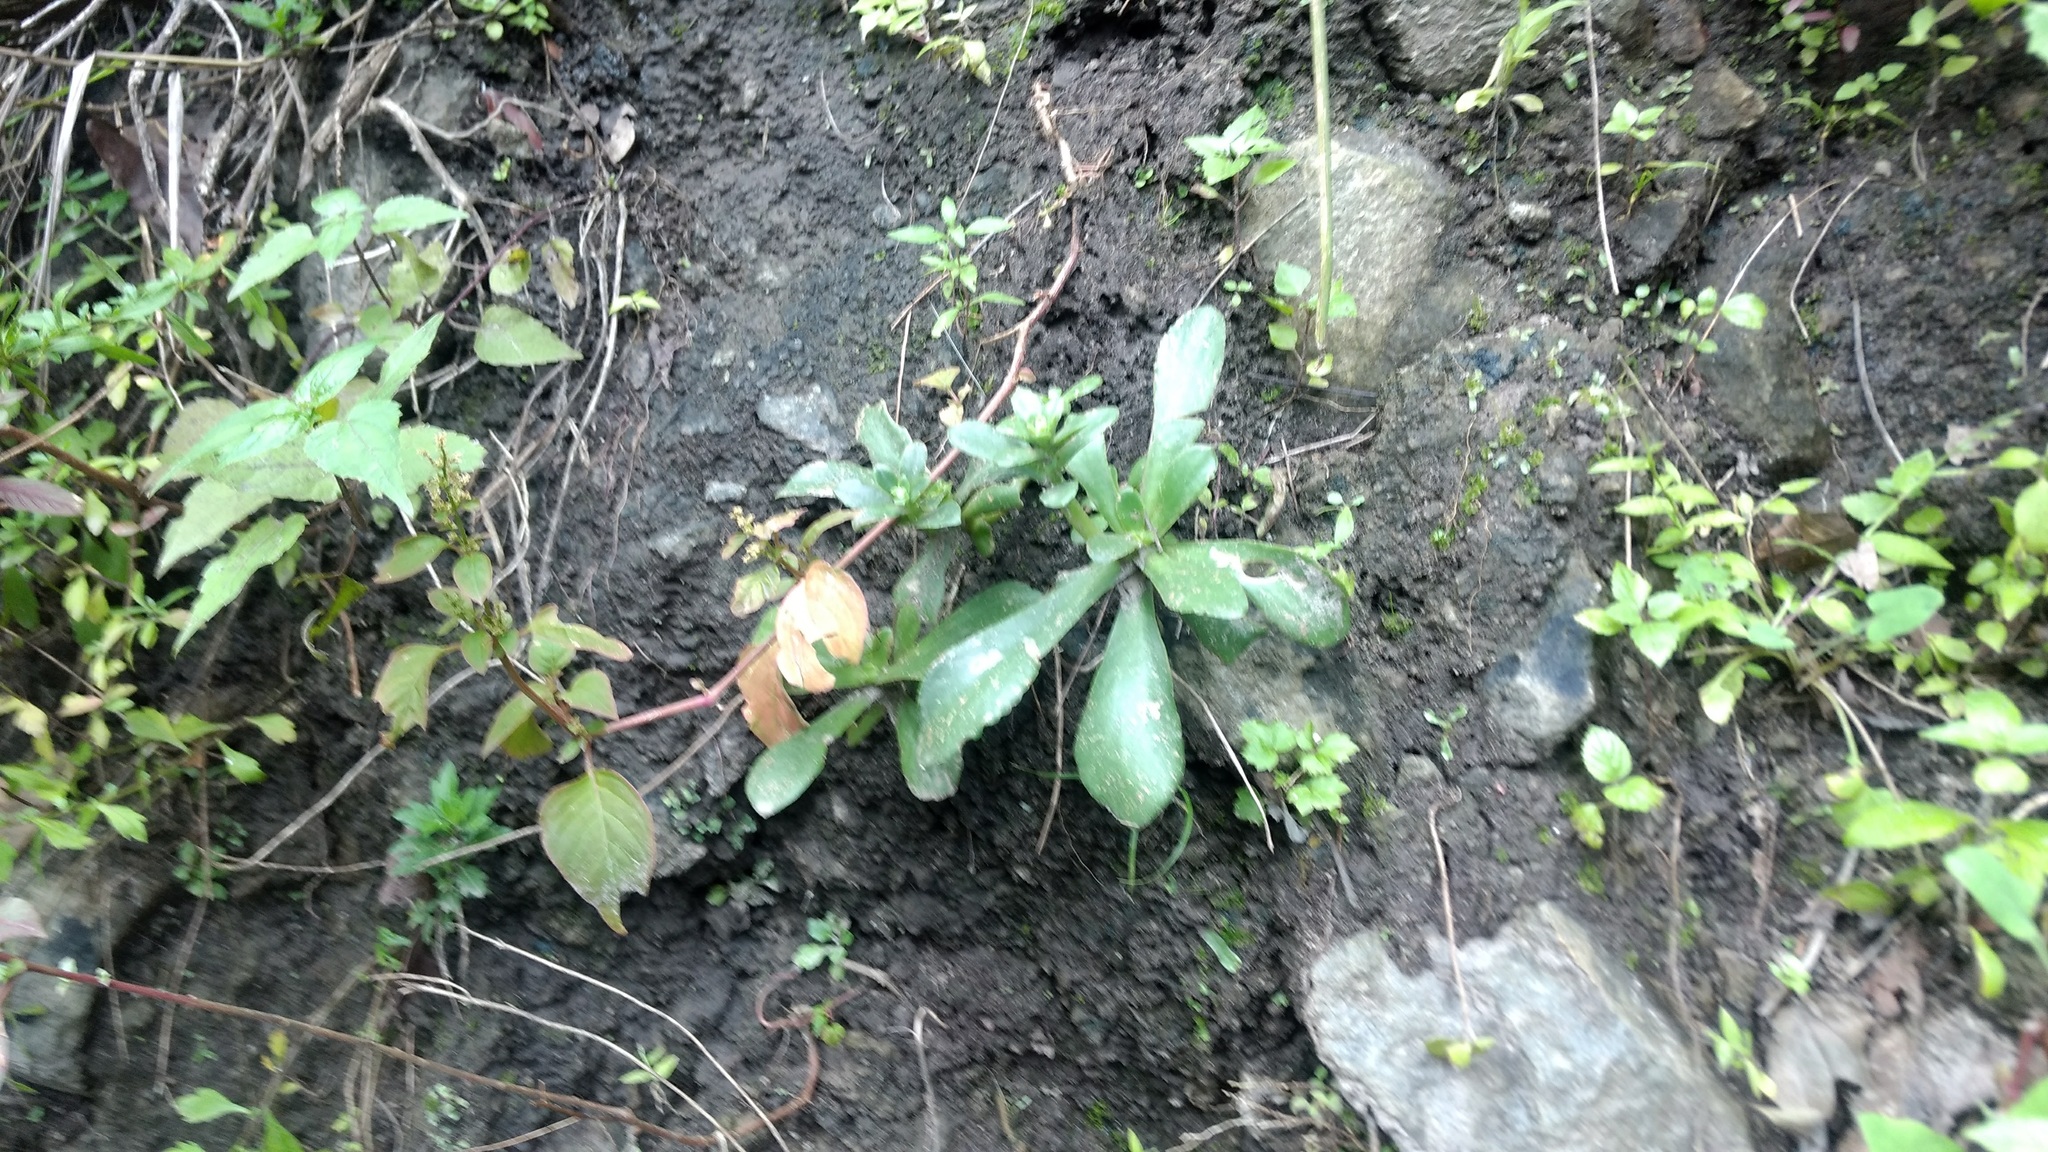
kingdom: Plantae
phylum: Tracheophyta
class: Magnoliopsida
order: Saxifragales
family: Crassulaceae
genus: Echeveria
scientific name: Echeveria fulgens
